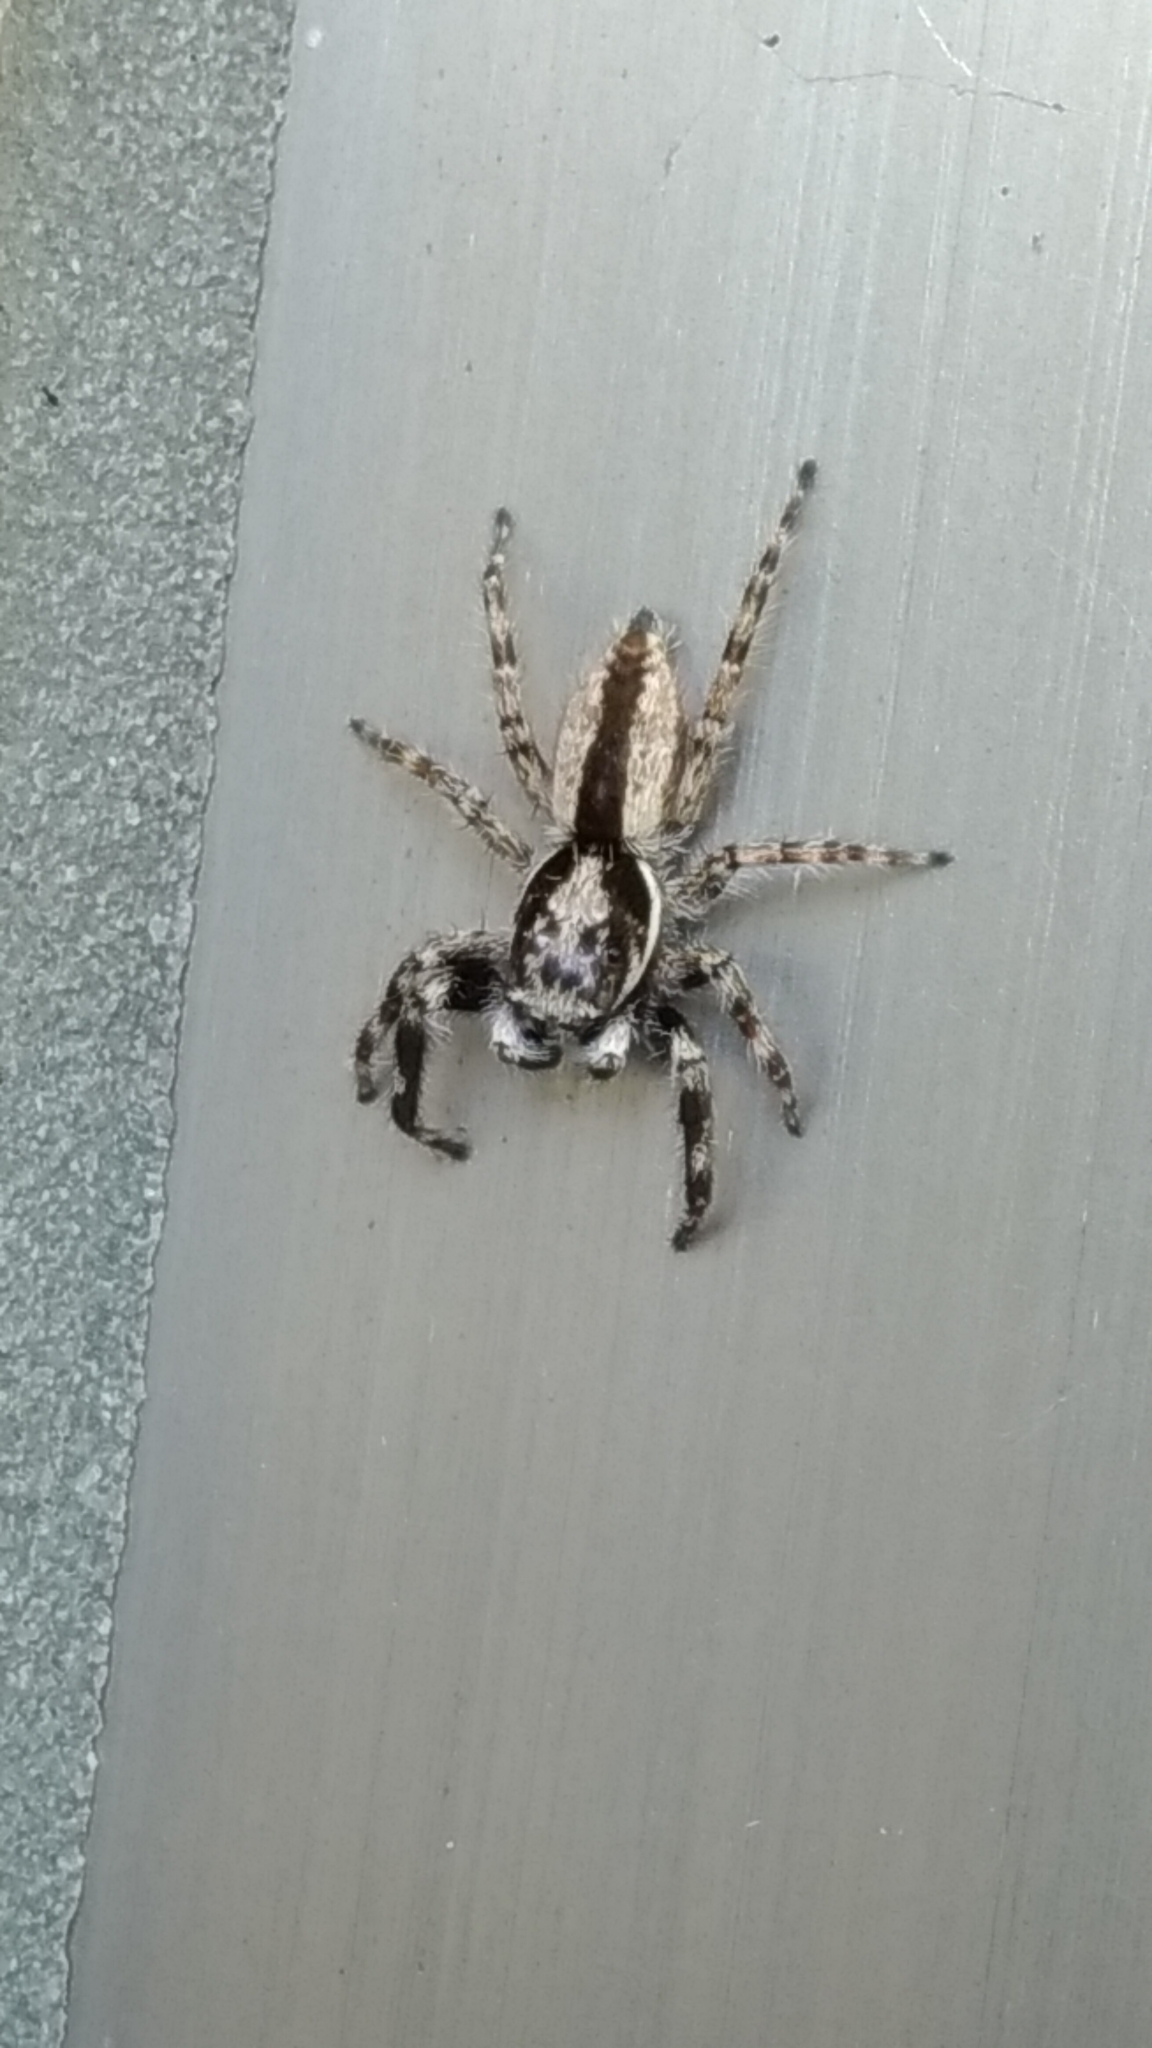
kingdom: Animalia
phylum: Arthropoda
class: Arachnida
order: Araneae
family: Salticidae
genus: Menemerus
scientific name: Menemerus bivittatus
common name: Gray wall jumper
